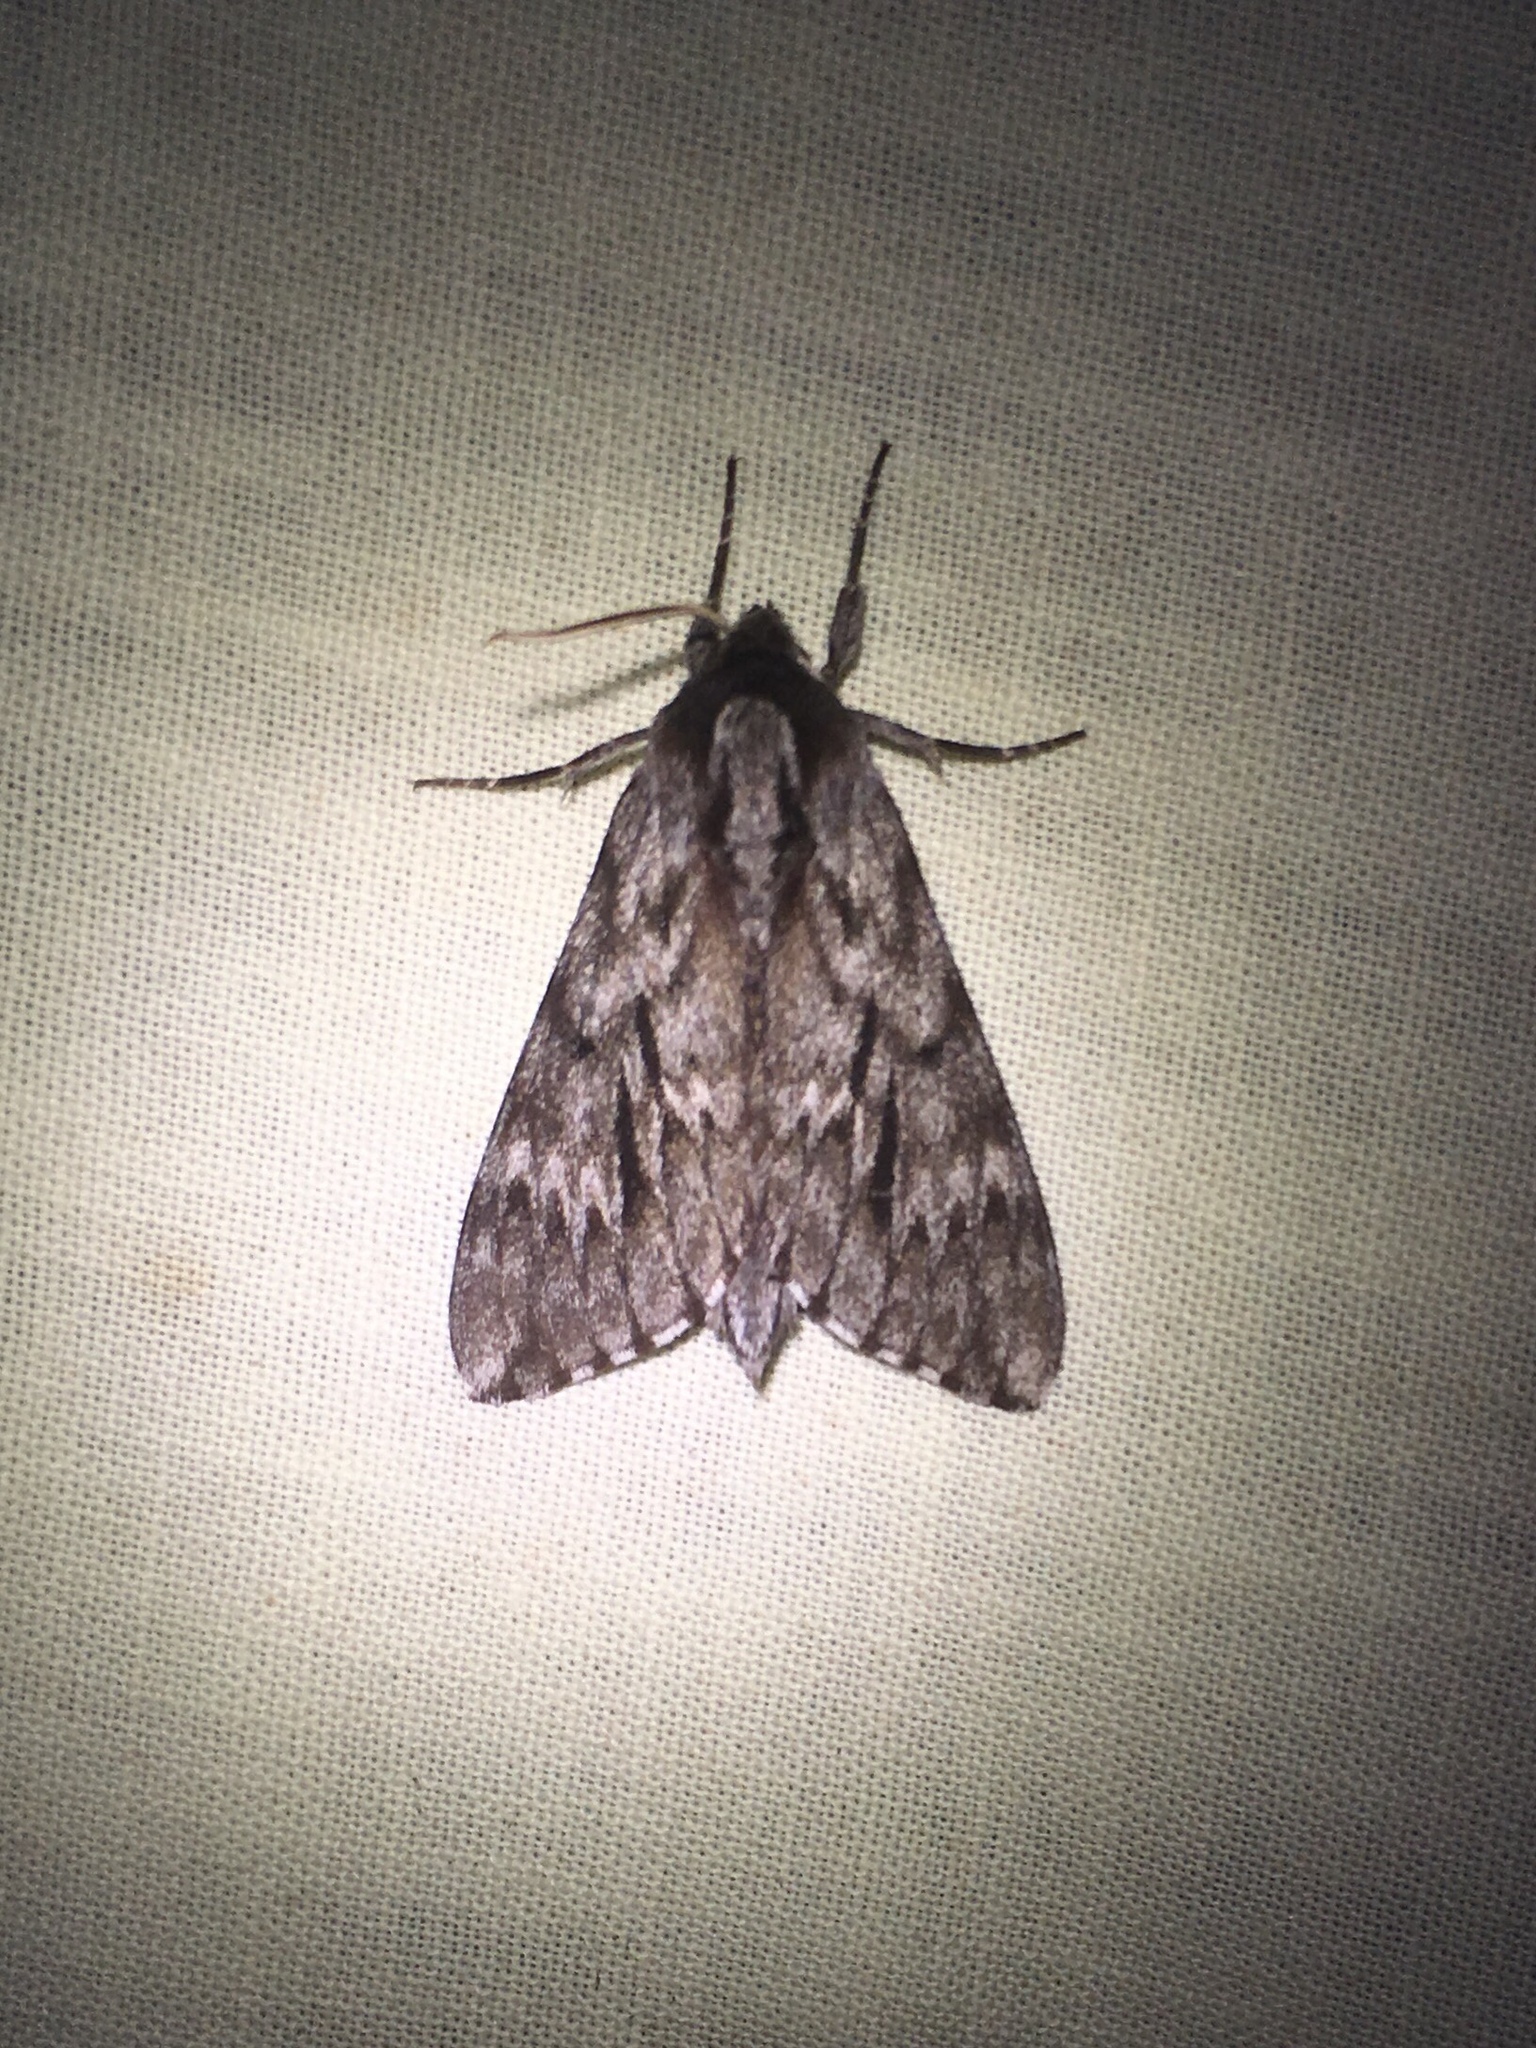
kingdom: Animalia
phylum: Arthropoda
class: Insecta
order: Lepidoptera
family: Sphingidae
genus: Lapara
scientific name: Lapara bombycoides
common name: Northern pine sphinx
